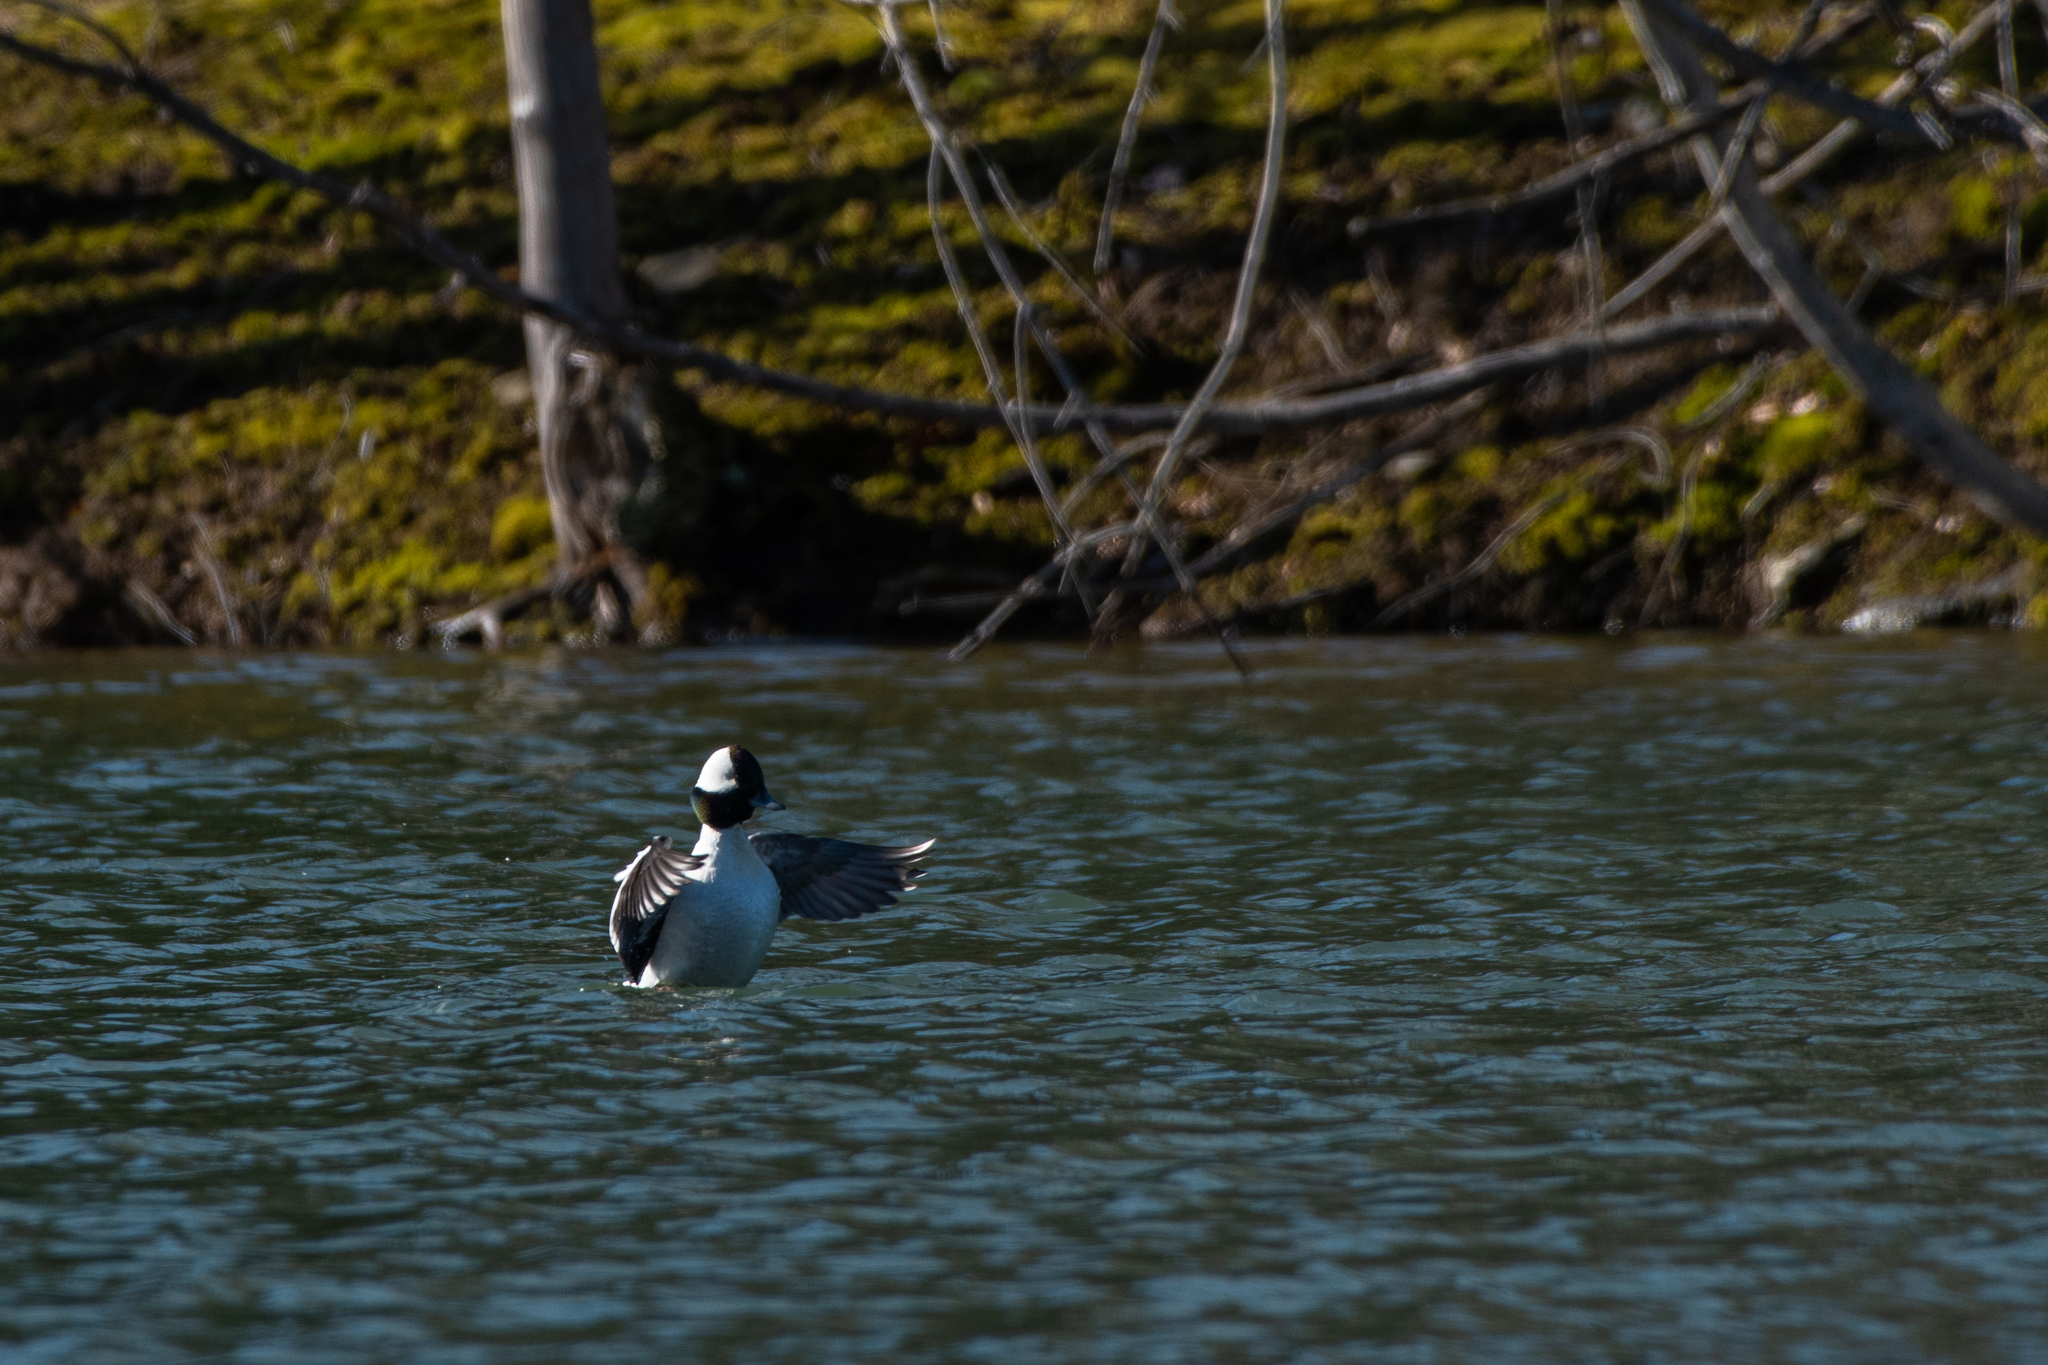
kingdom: Animalia
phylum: Chordata
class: Aves
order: Anseriformes
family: Anatidae
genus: Bucephala
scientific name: Bucephala albeola
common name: Bufflehead
